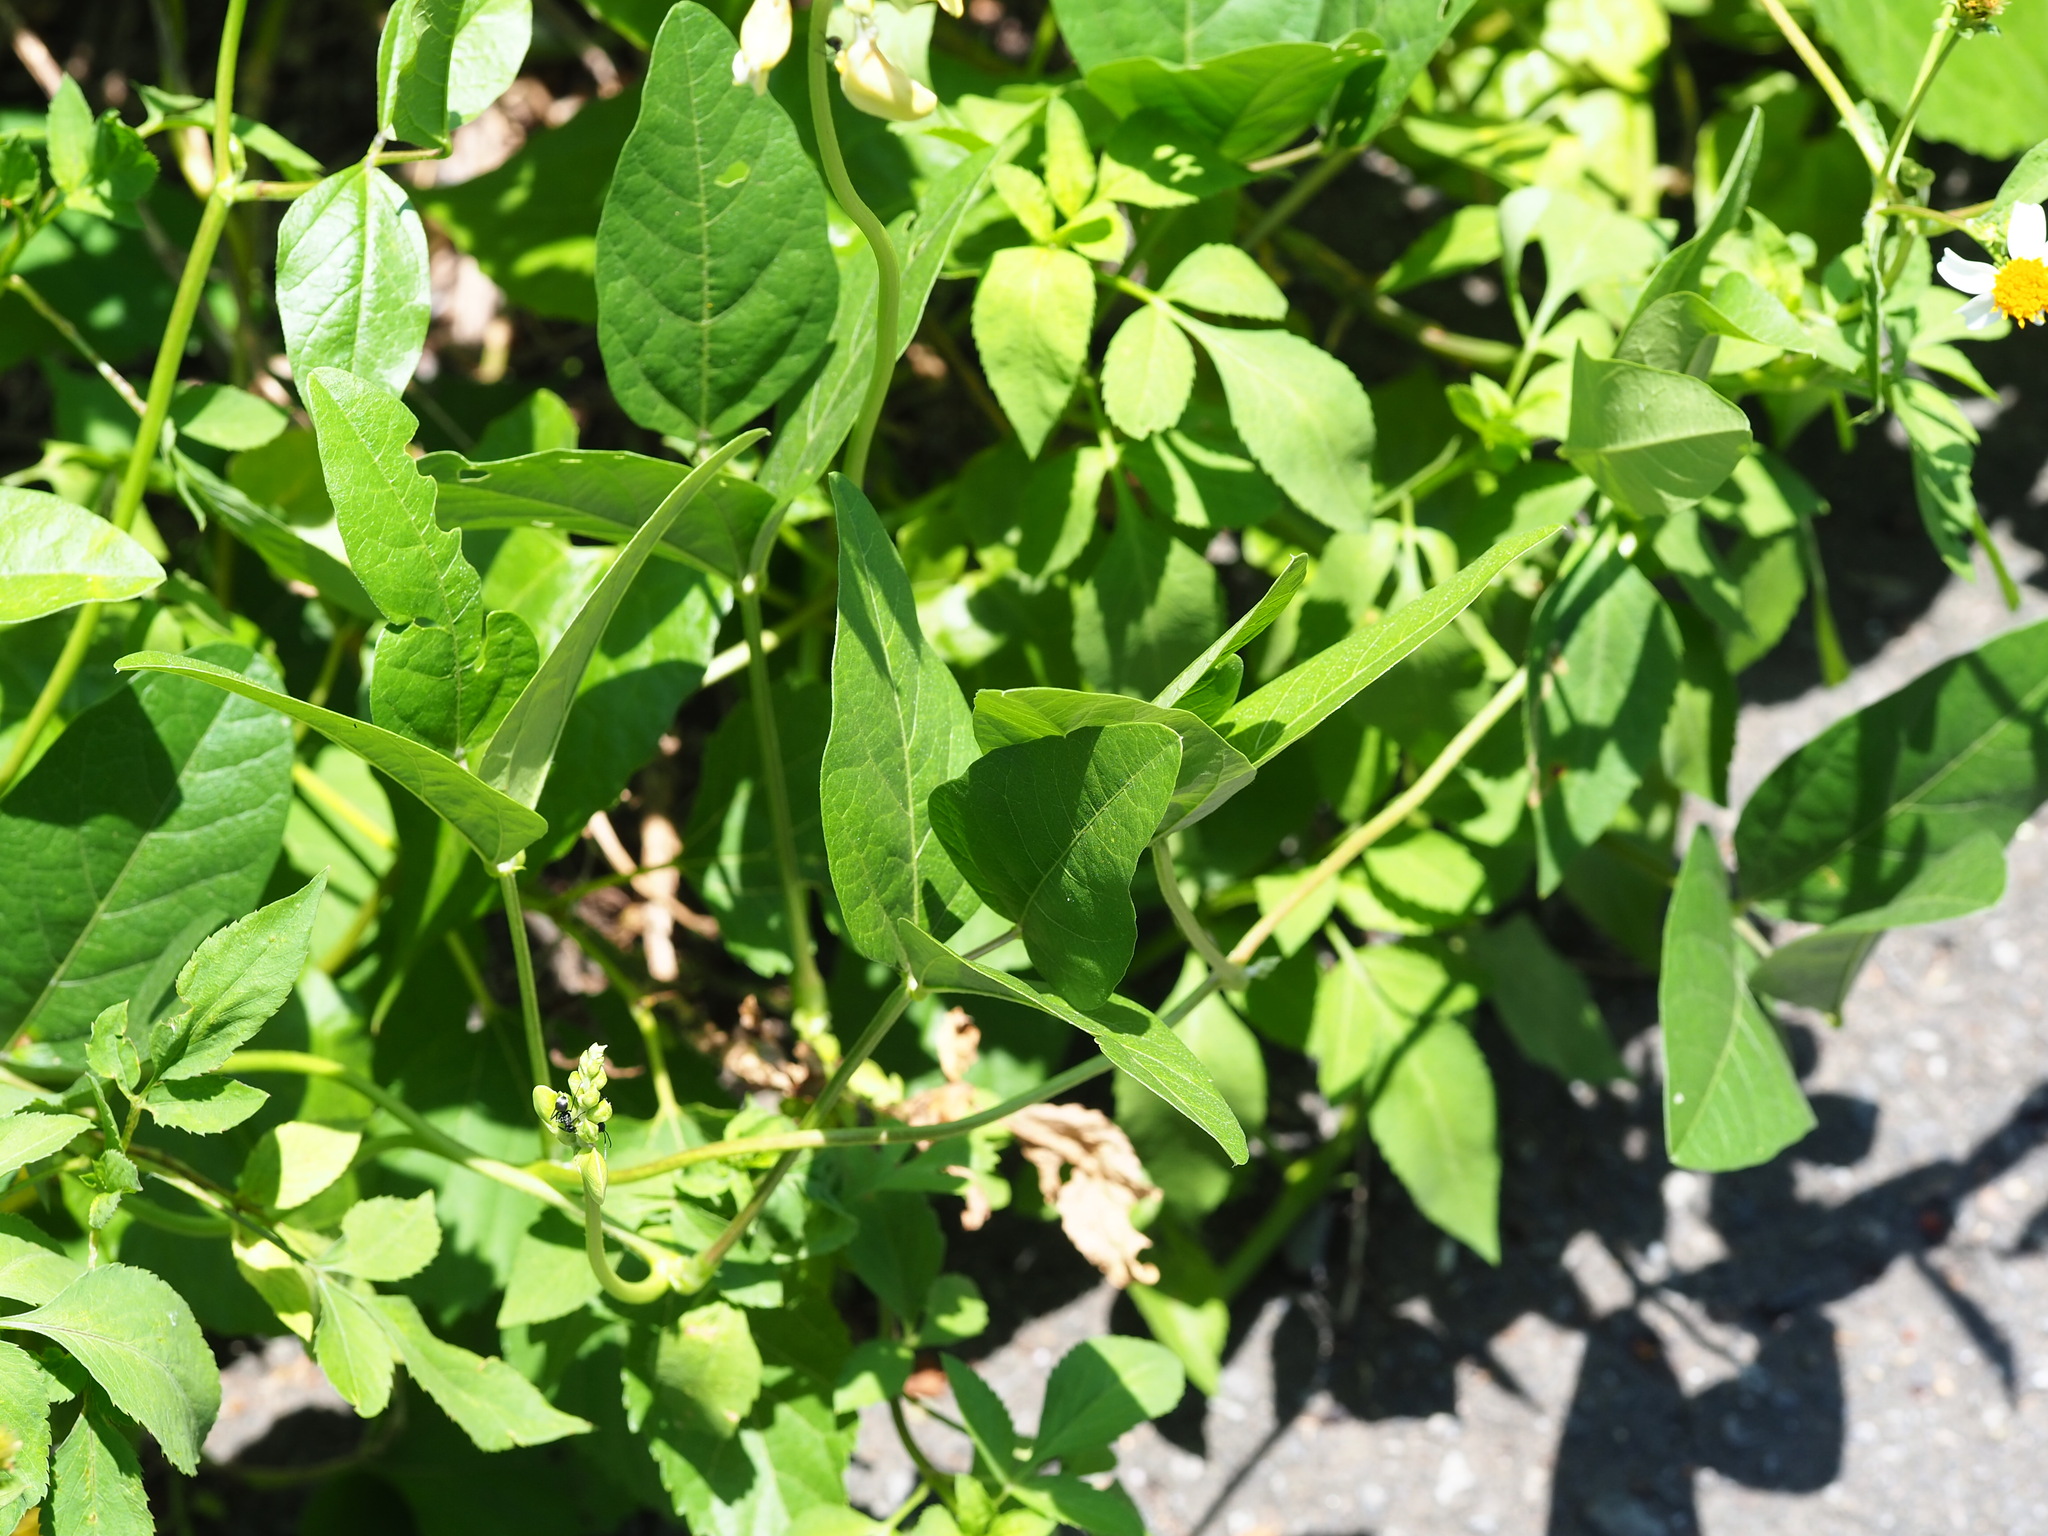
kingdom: Plantae
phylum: Tracheophyta
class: Magnoliopsida
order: Fabales
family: Fabaceae
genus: Vigna
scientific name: Vigna luteola
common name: Hairypod cowpea
